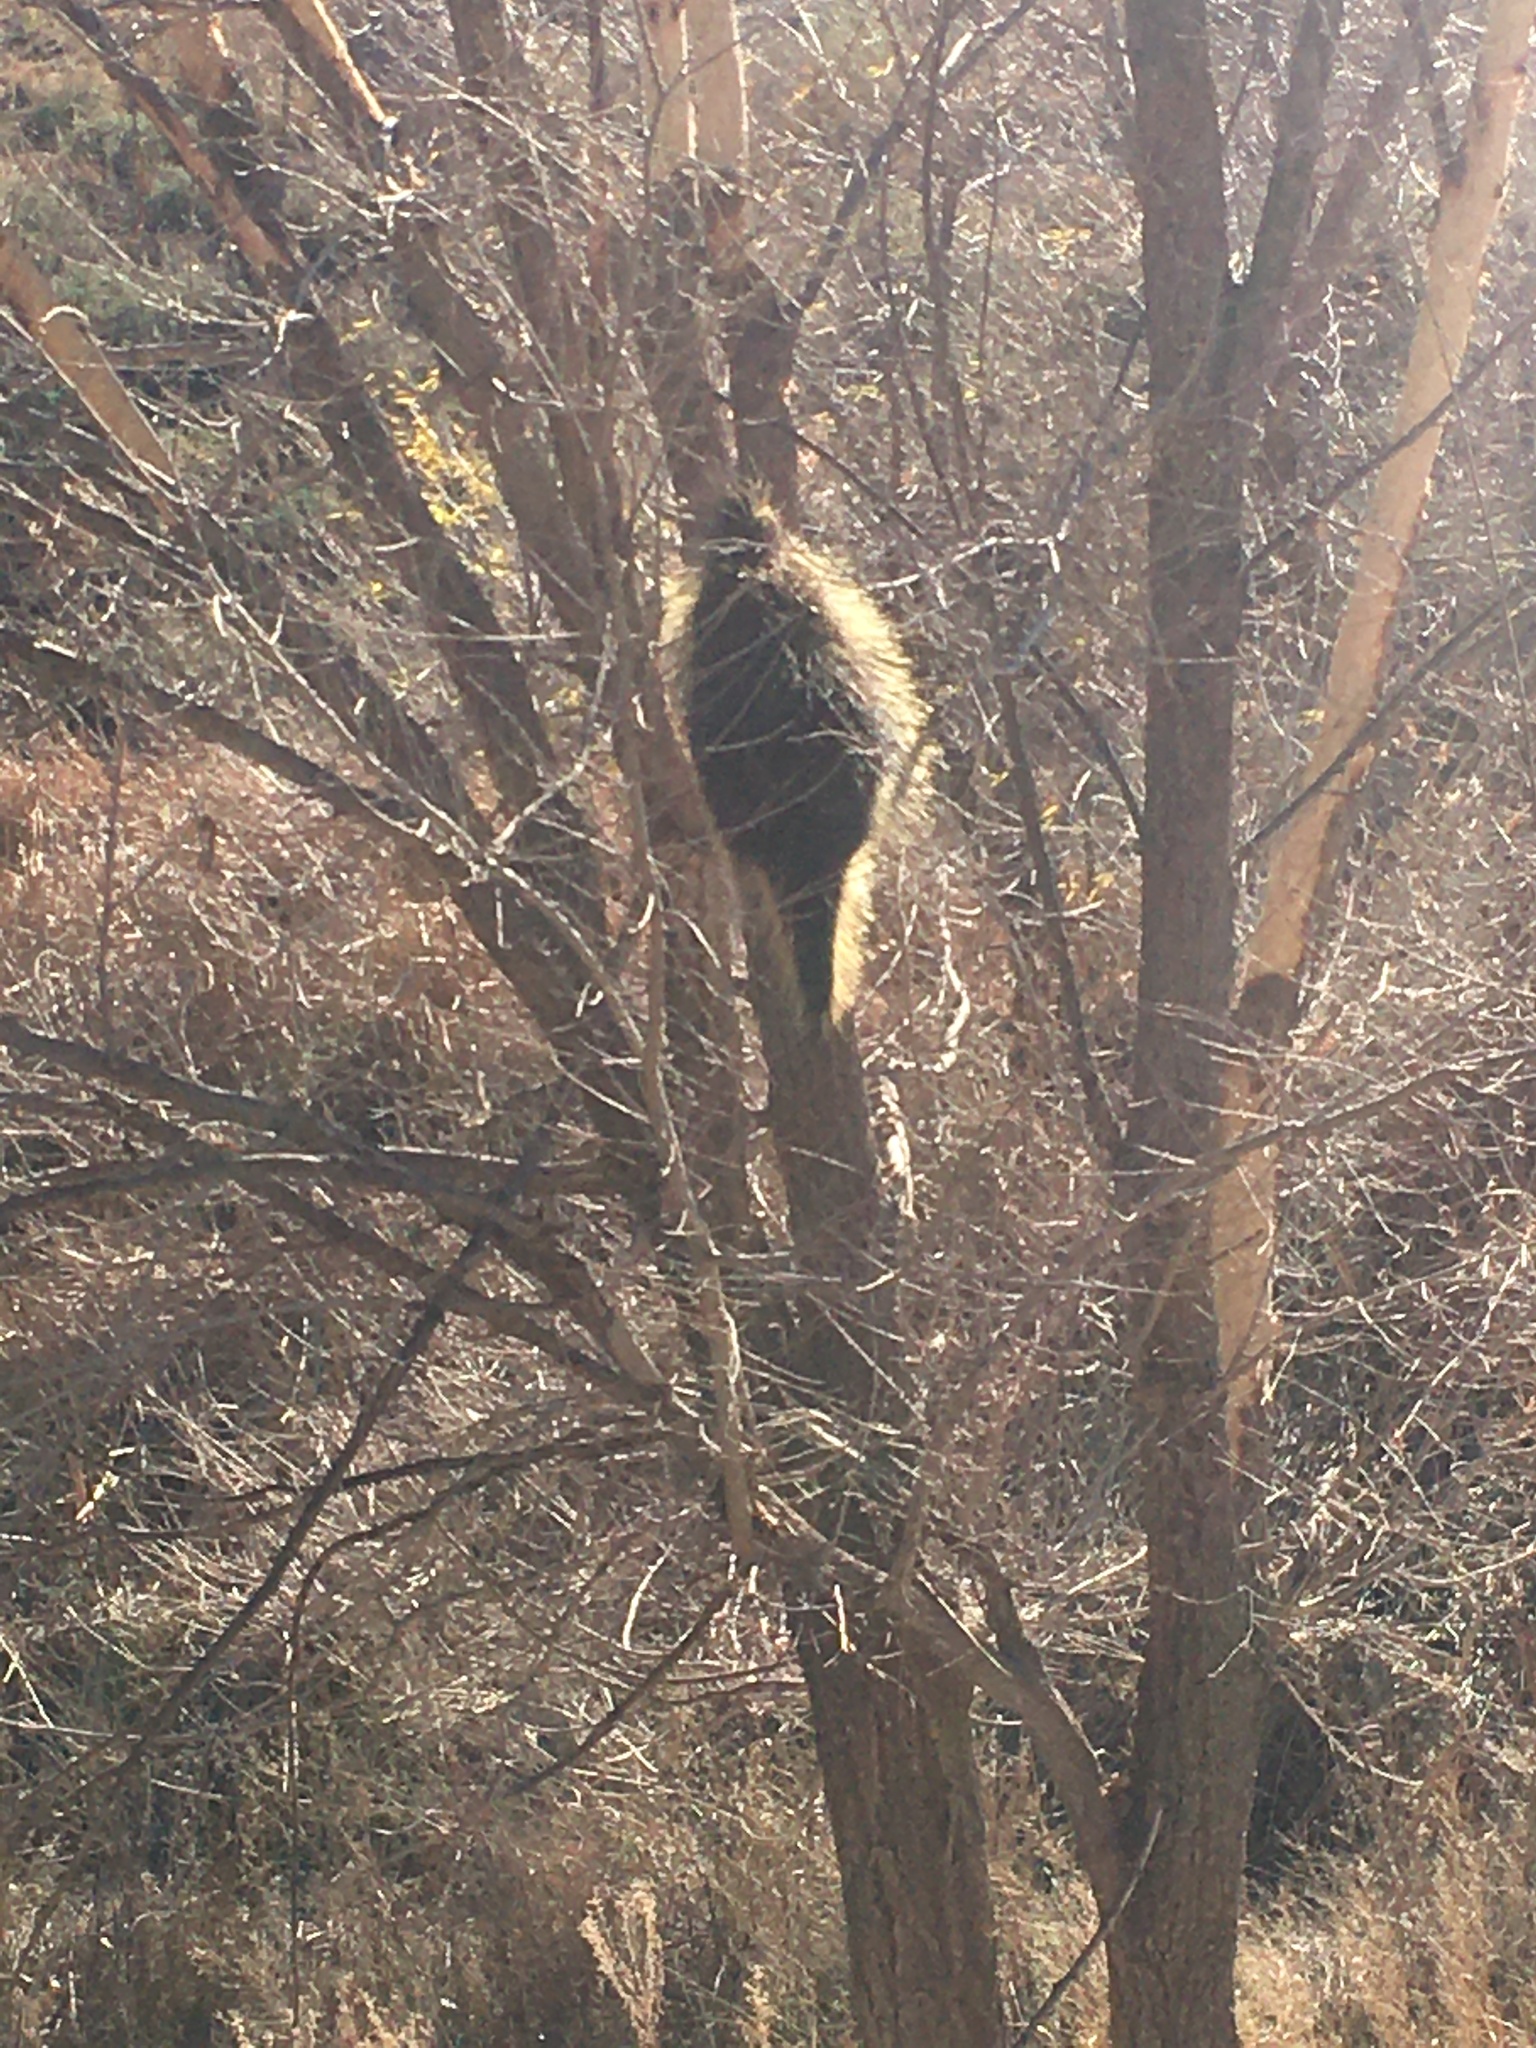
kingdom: Animalia
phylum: Chordata
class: Mammalia
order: Rodentia
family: Erethizontidae
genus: Erethizon
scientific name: Erethizon dorsatus
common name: North american porcupine
